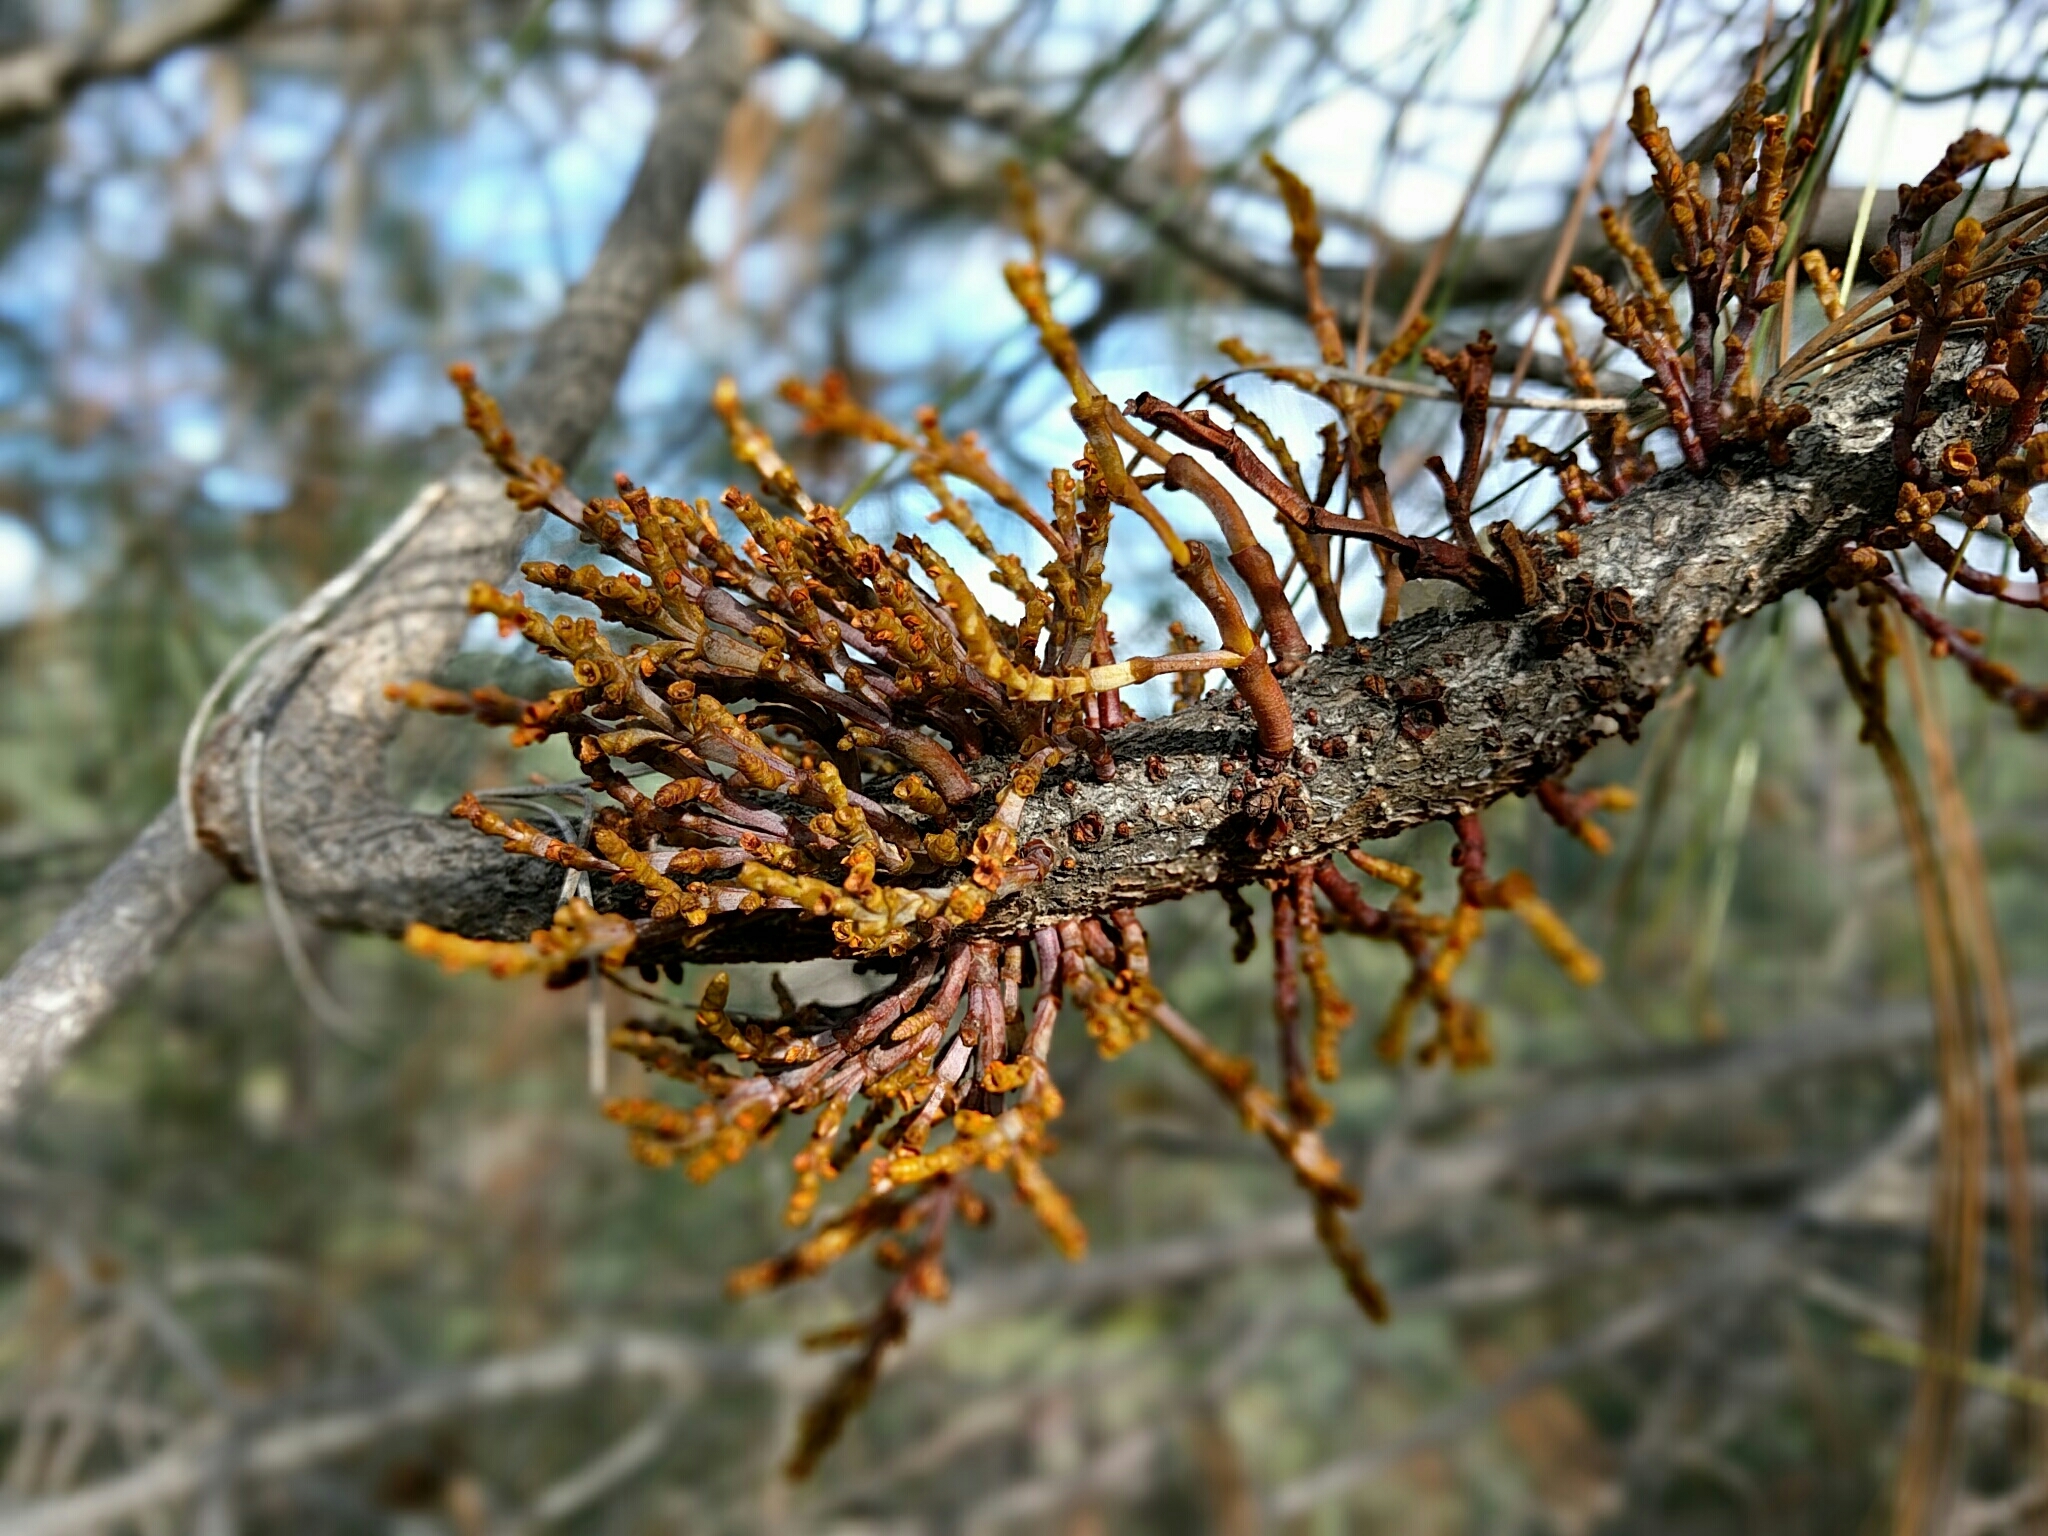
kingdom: Plantae
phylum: Tracheophyta
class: Magnoliopsida
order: Santalales
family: Viscaceae
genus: Arceuthobium
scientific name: Arceuthobium campylopodum
